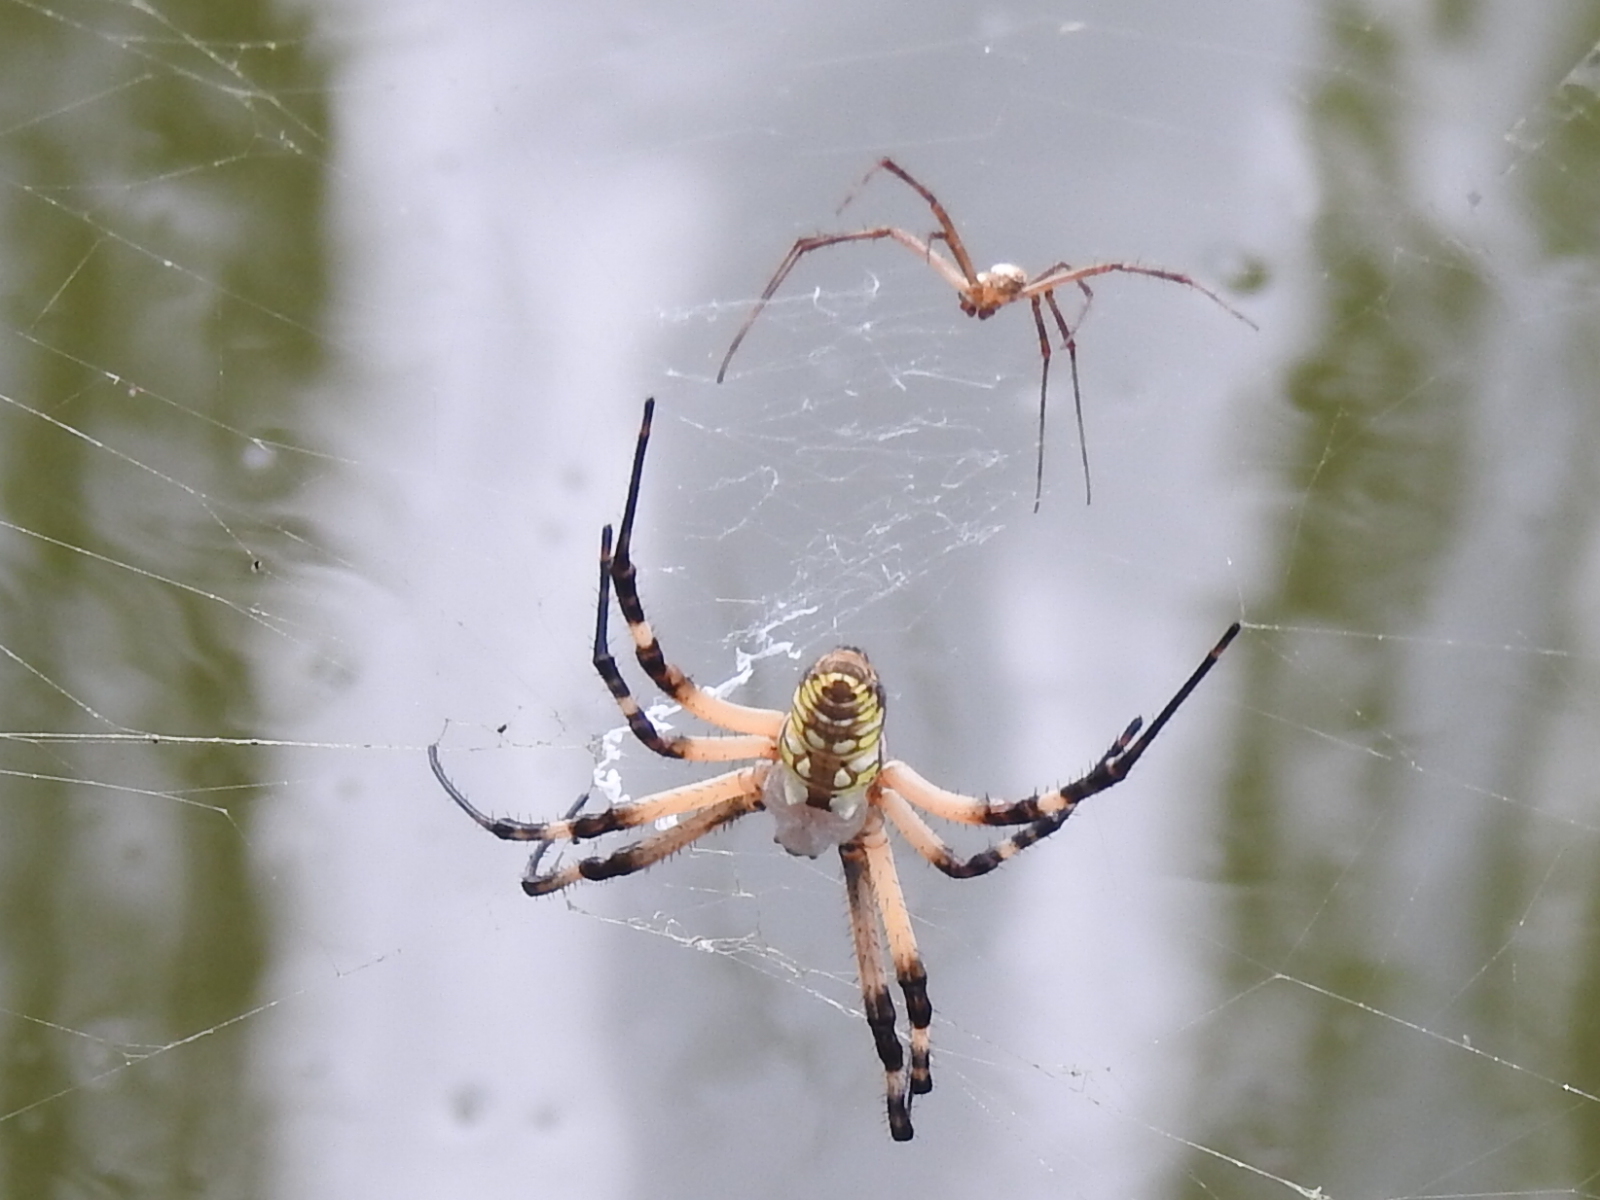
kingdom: Animalia
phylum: Arthropoda
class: Arachnida
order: Araneae
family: Araneidae
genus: Argiope
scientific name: Argiope aurantia
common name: Orb weavers
